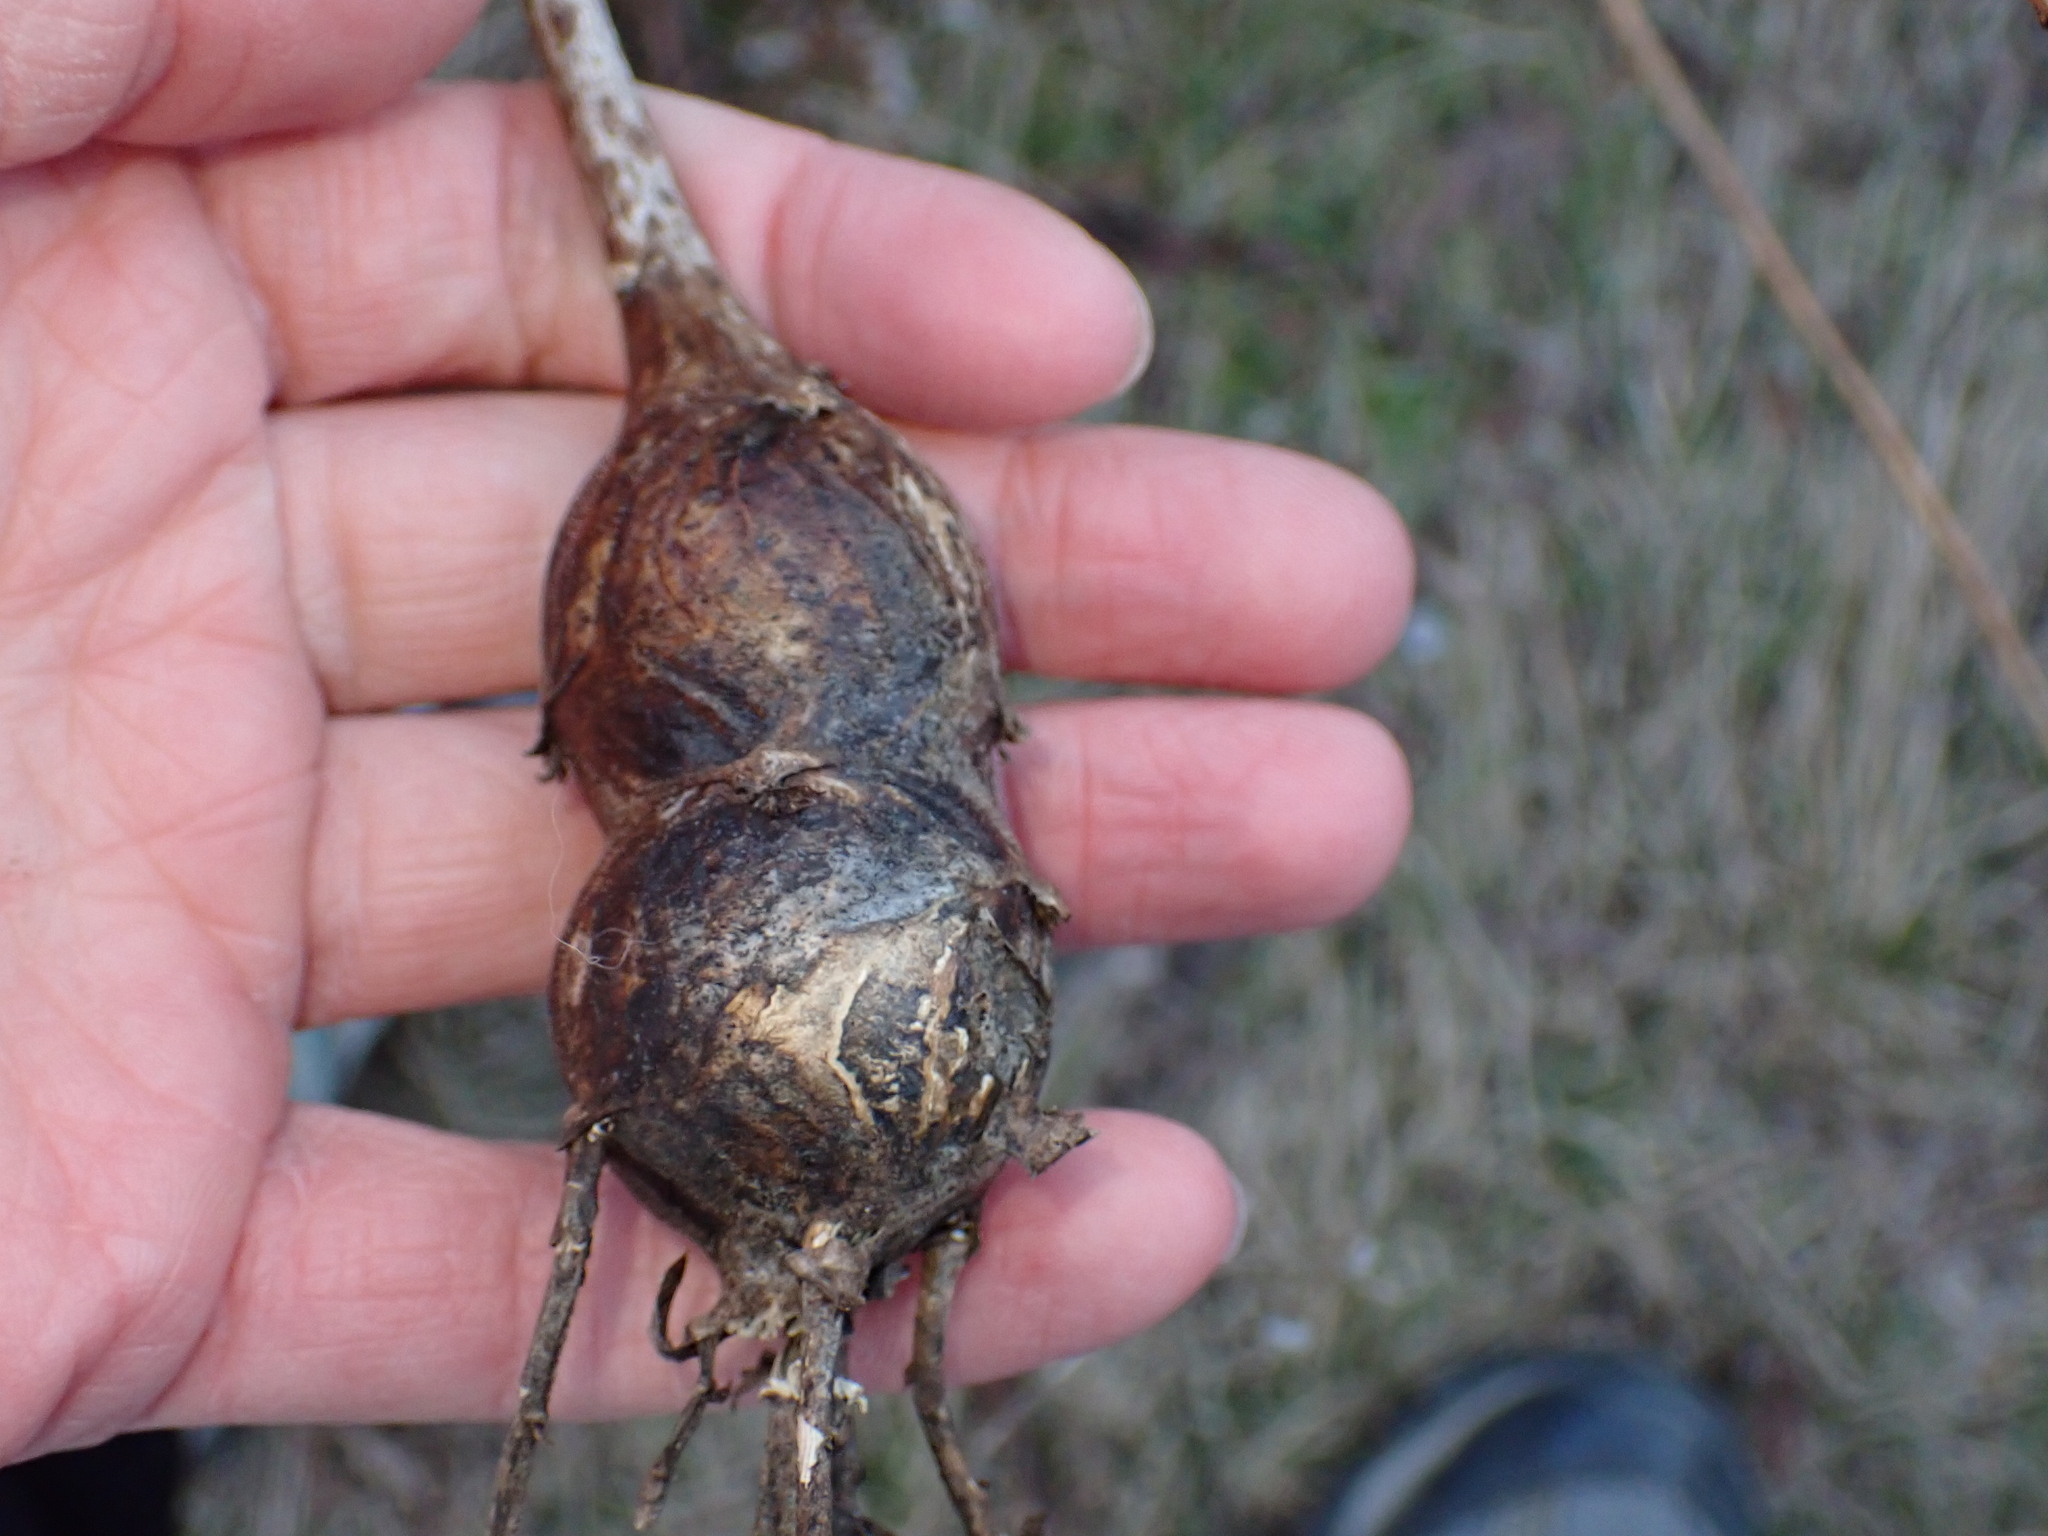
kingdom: Animalia
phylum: Arthropoda
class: Insecta
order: Diptera
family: Tephritidae
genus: Eurosta
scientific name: Eurosta solidaginis
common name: Goldenrod gall fly
